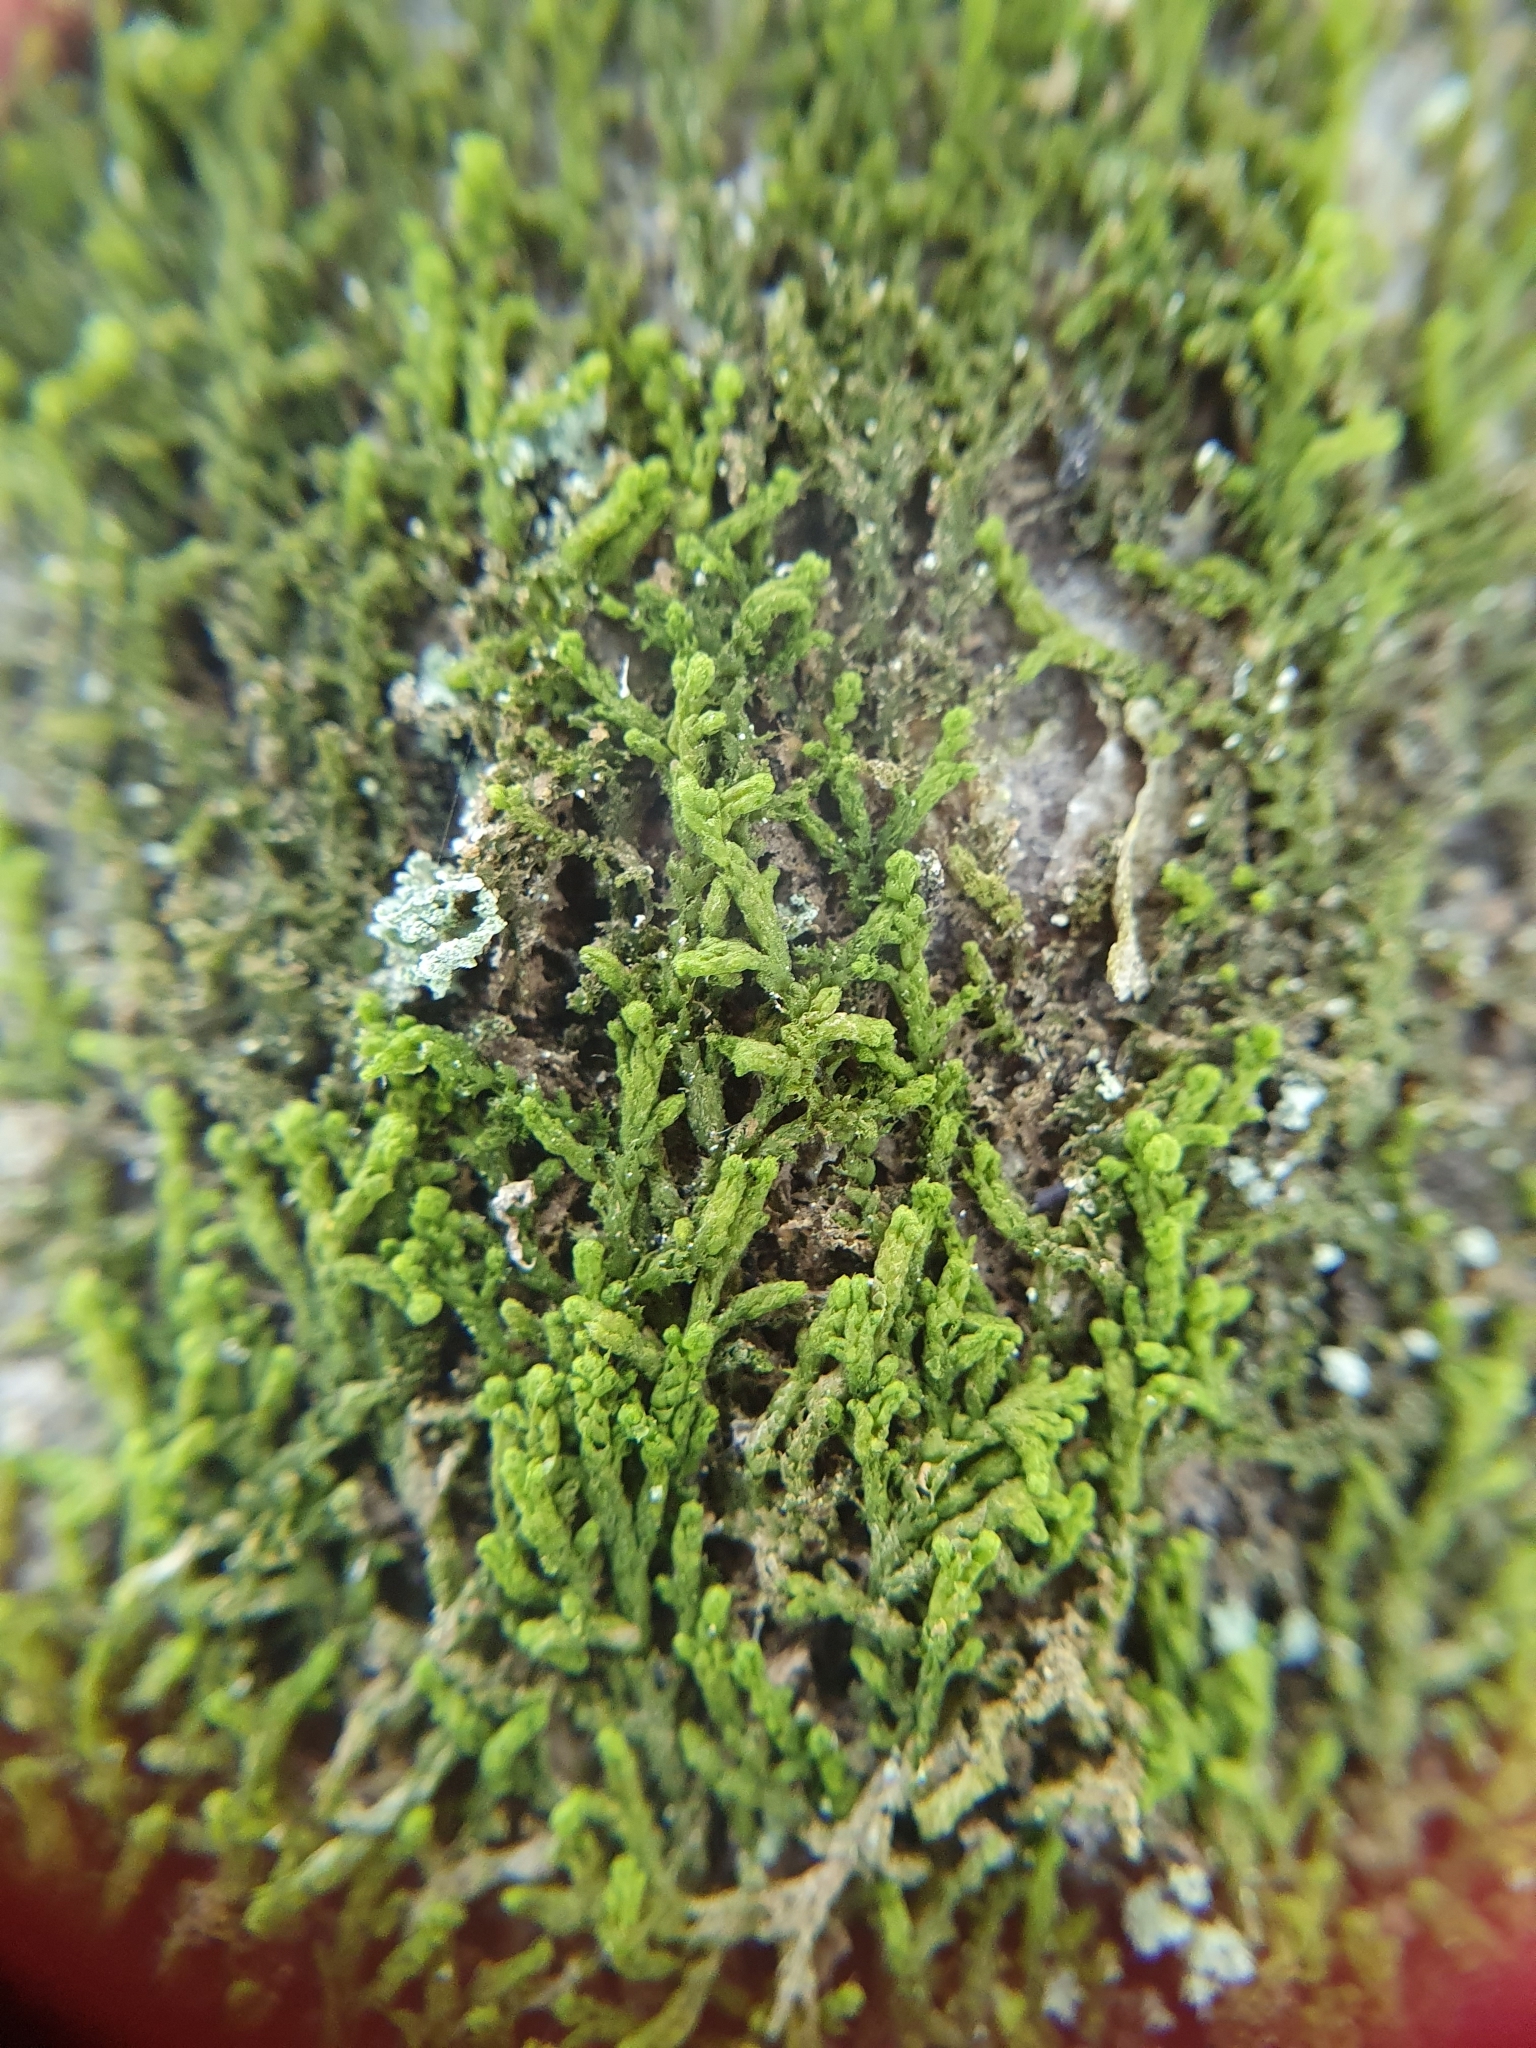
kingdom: Plantae
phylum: Marchantiophyta
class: Jungermanniopsida
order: Ptilidiales
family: Ptilidiaceae
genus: Ptilidium
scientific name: Ptilidium pulcherrimum
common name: Tree fringewort
